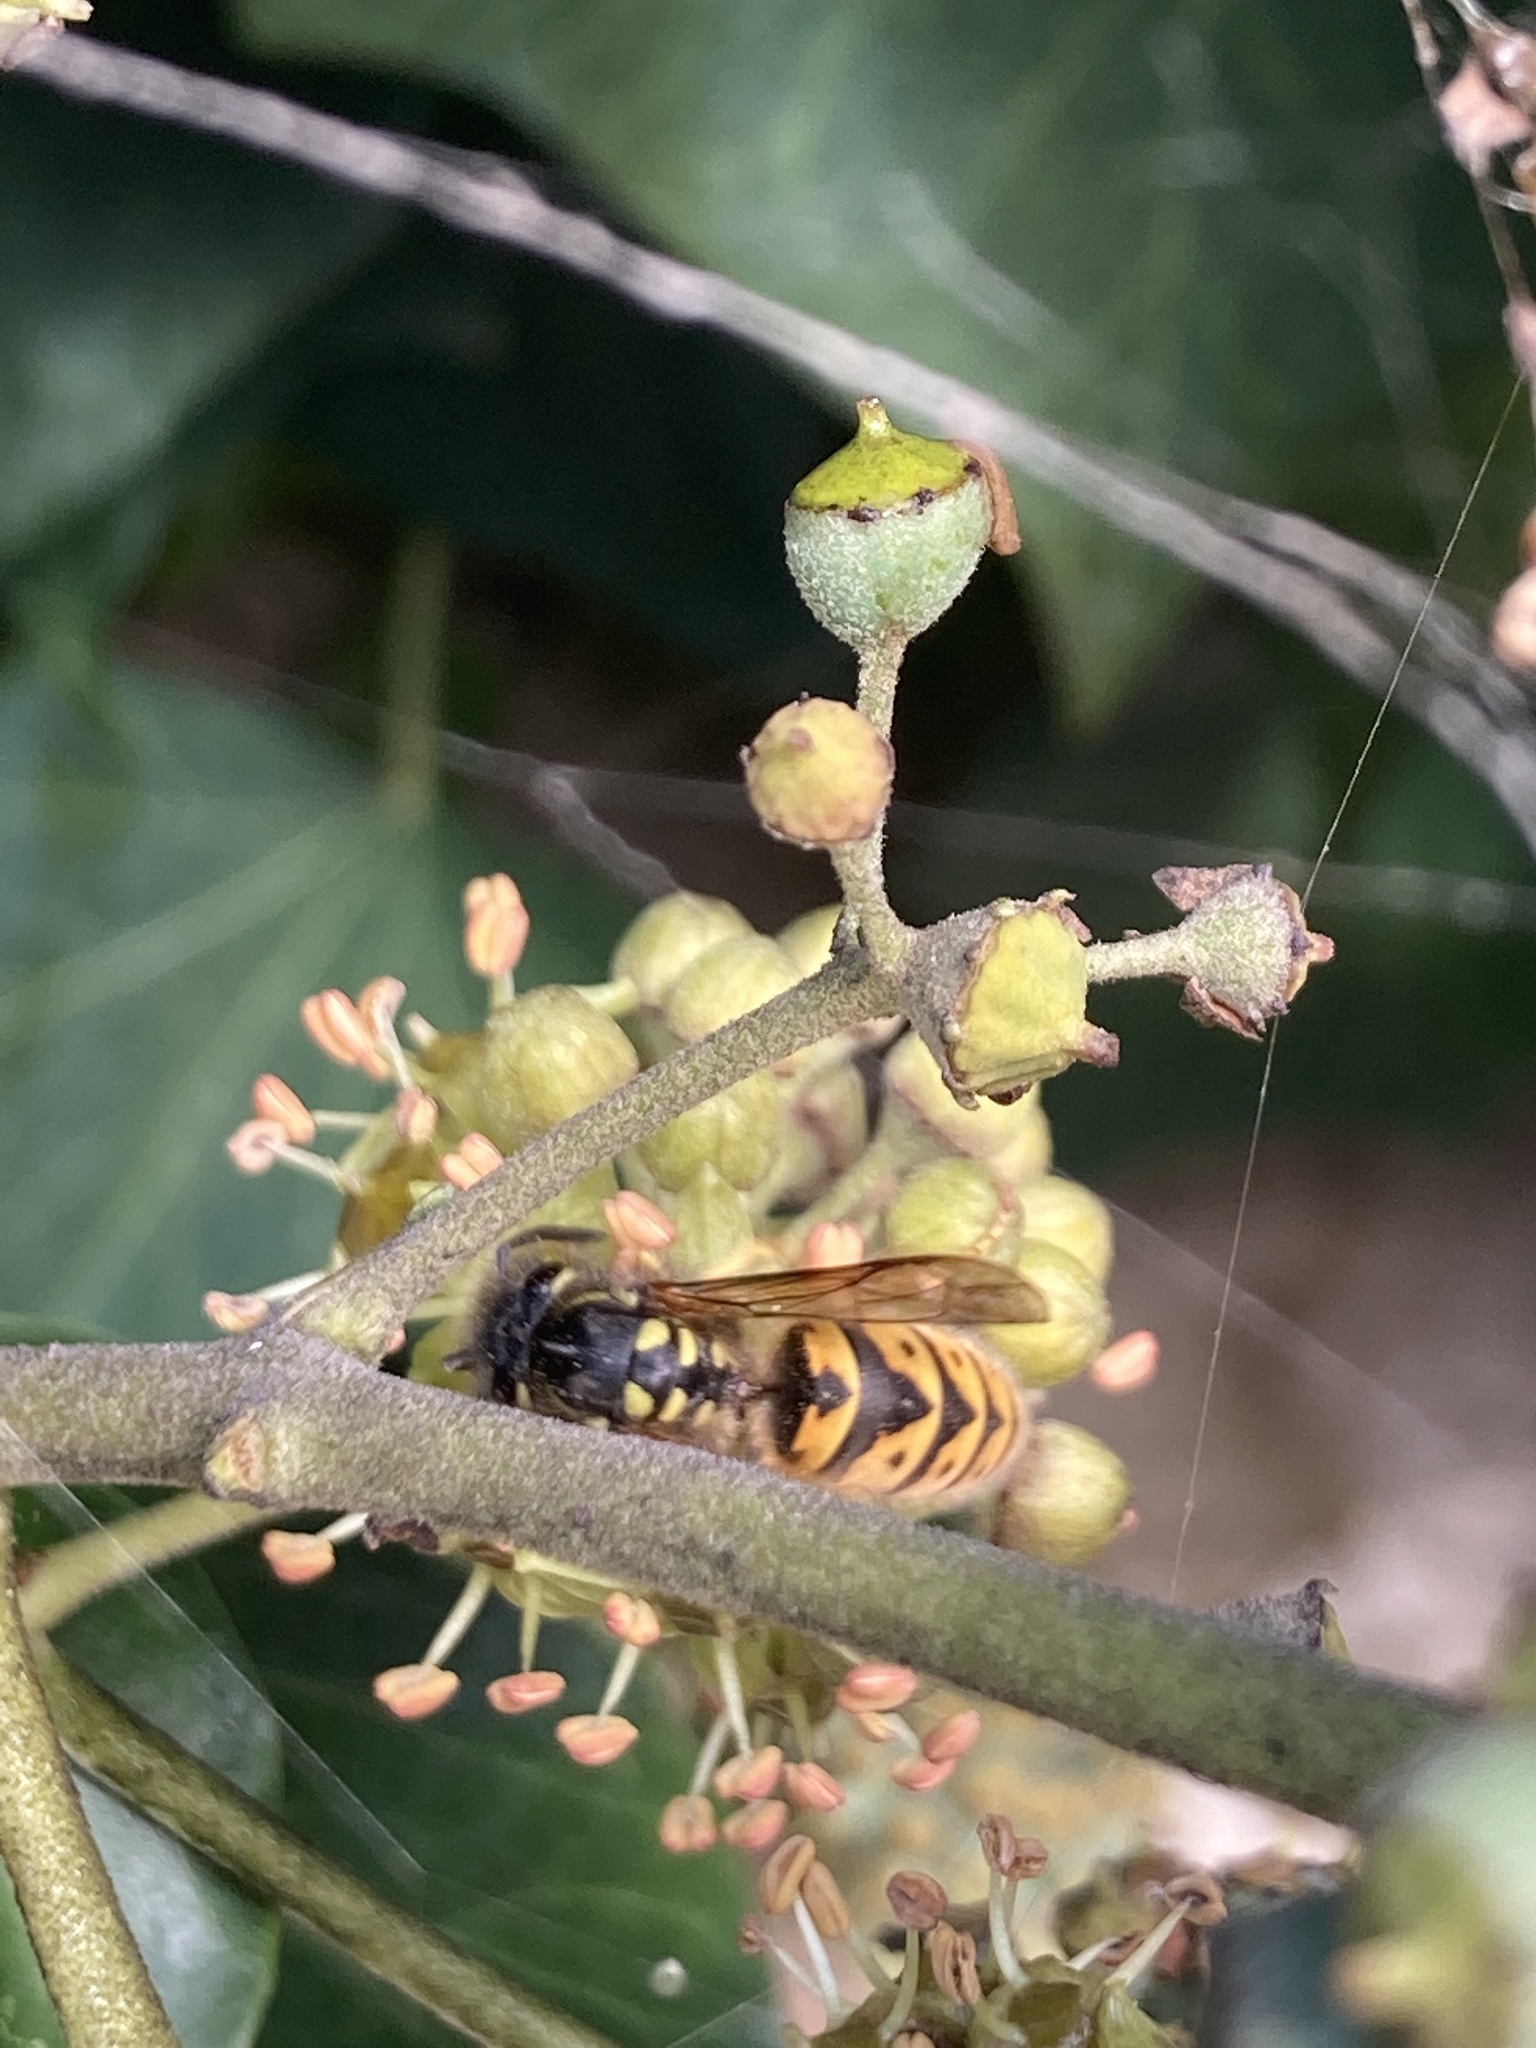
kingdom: Animalia
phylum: Arthropoda
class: Insecta
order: Hymenoptera
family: Vespidae
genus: Vespula
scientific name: Vespula germanica
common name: German wasp
